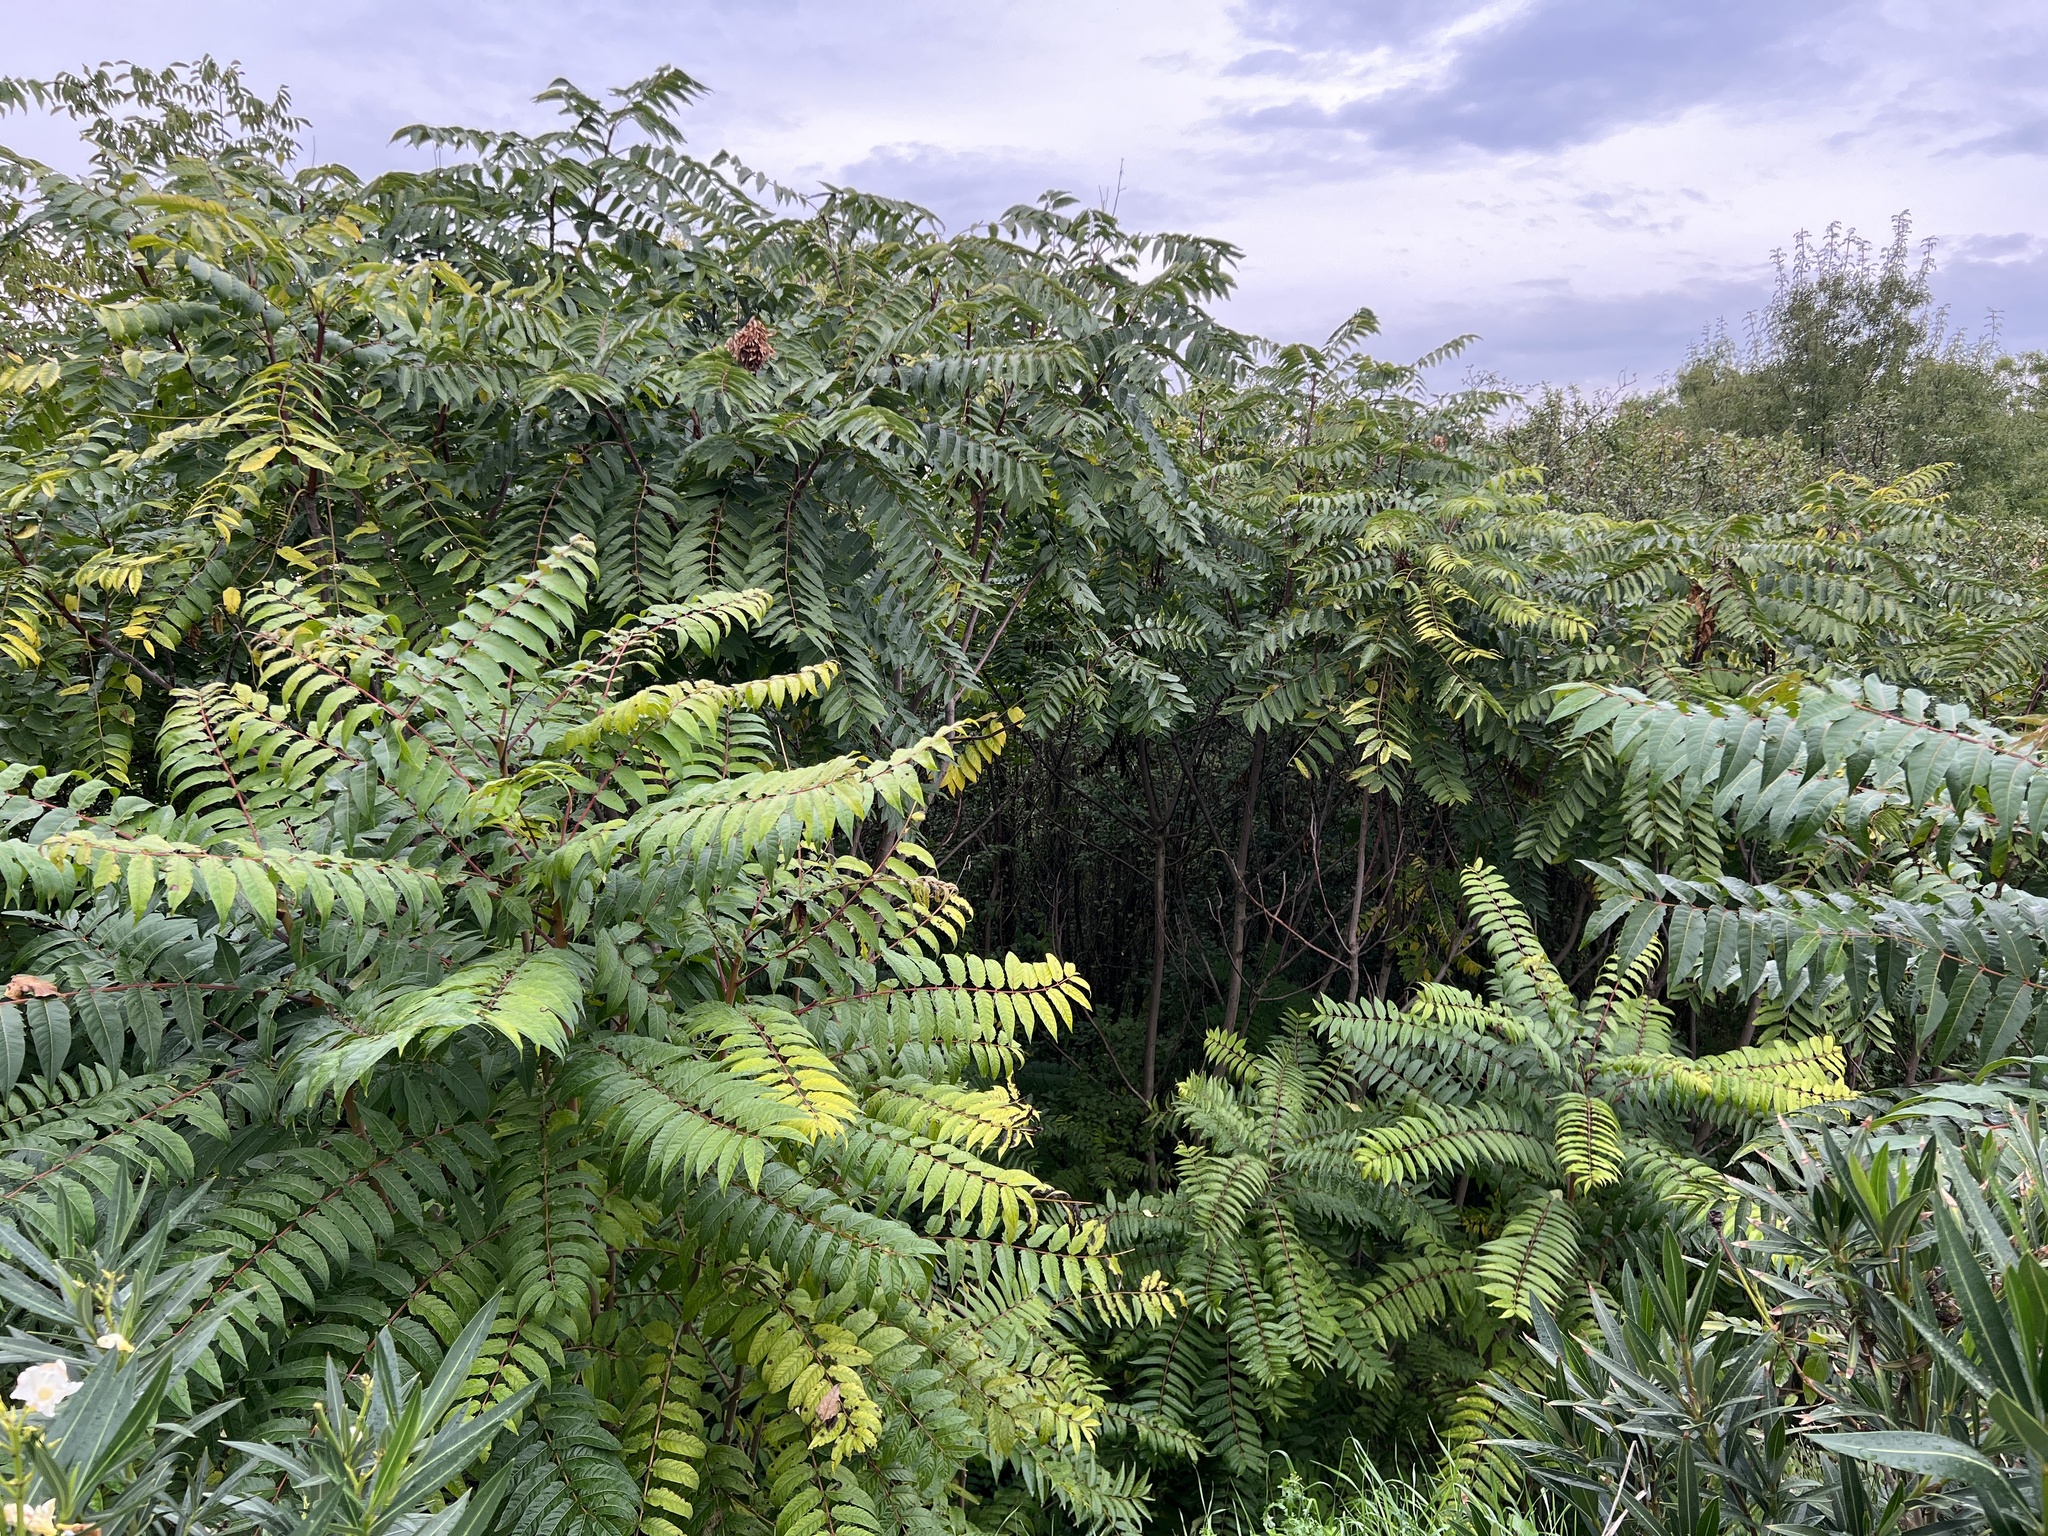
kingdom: Plantae
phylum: Tracheophyta
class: Magnoliopsida
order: Sapindales
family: Simaroubaceae
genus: Ailanthus
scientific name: Ailanthus altissima
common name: Tree-of-heaven
